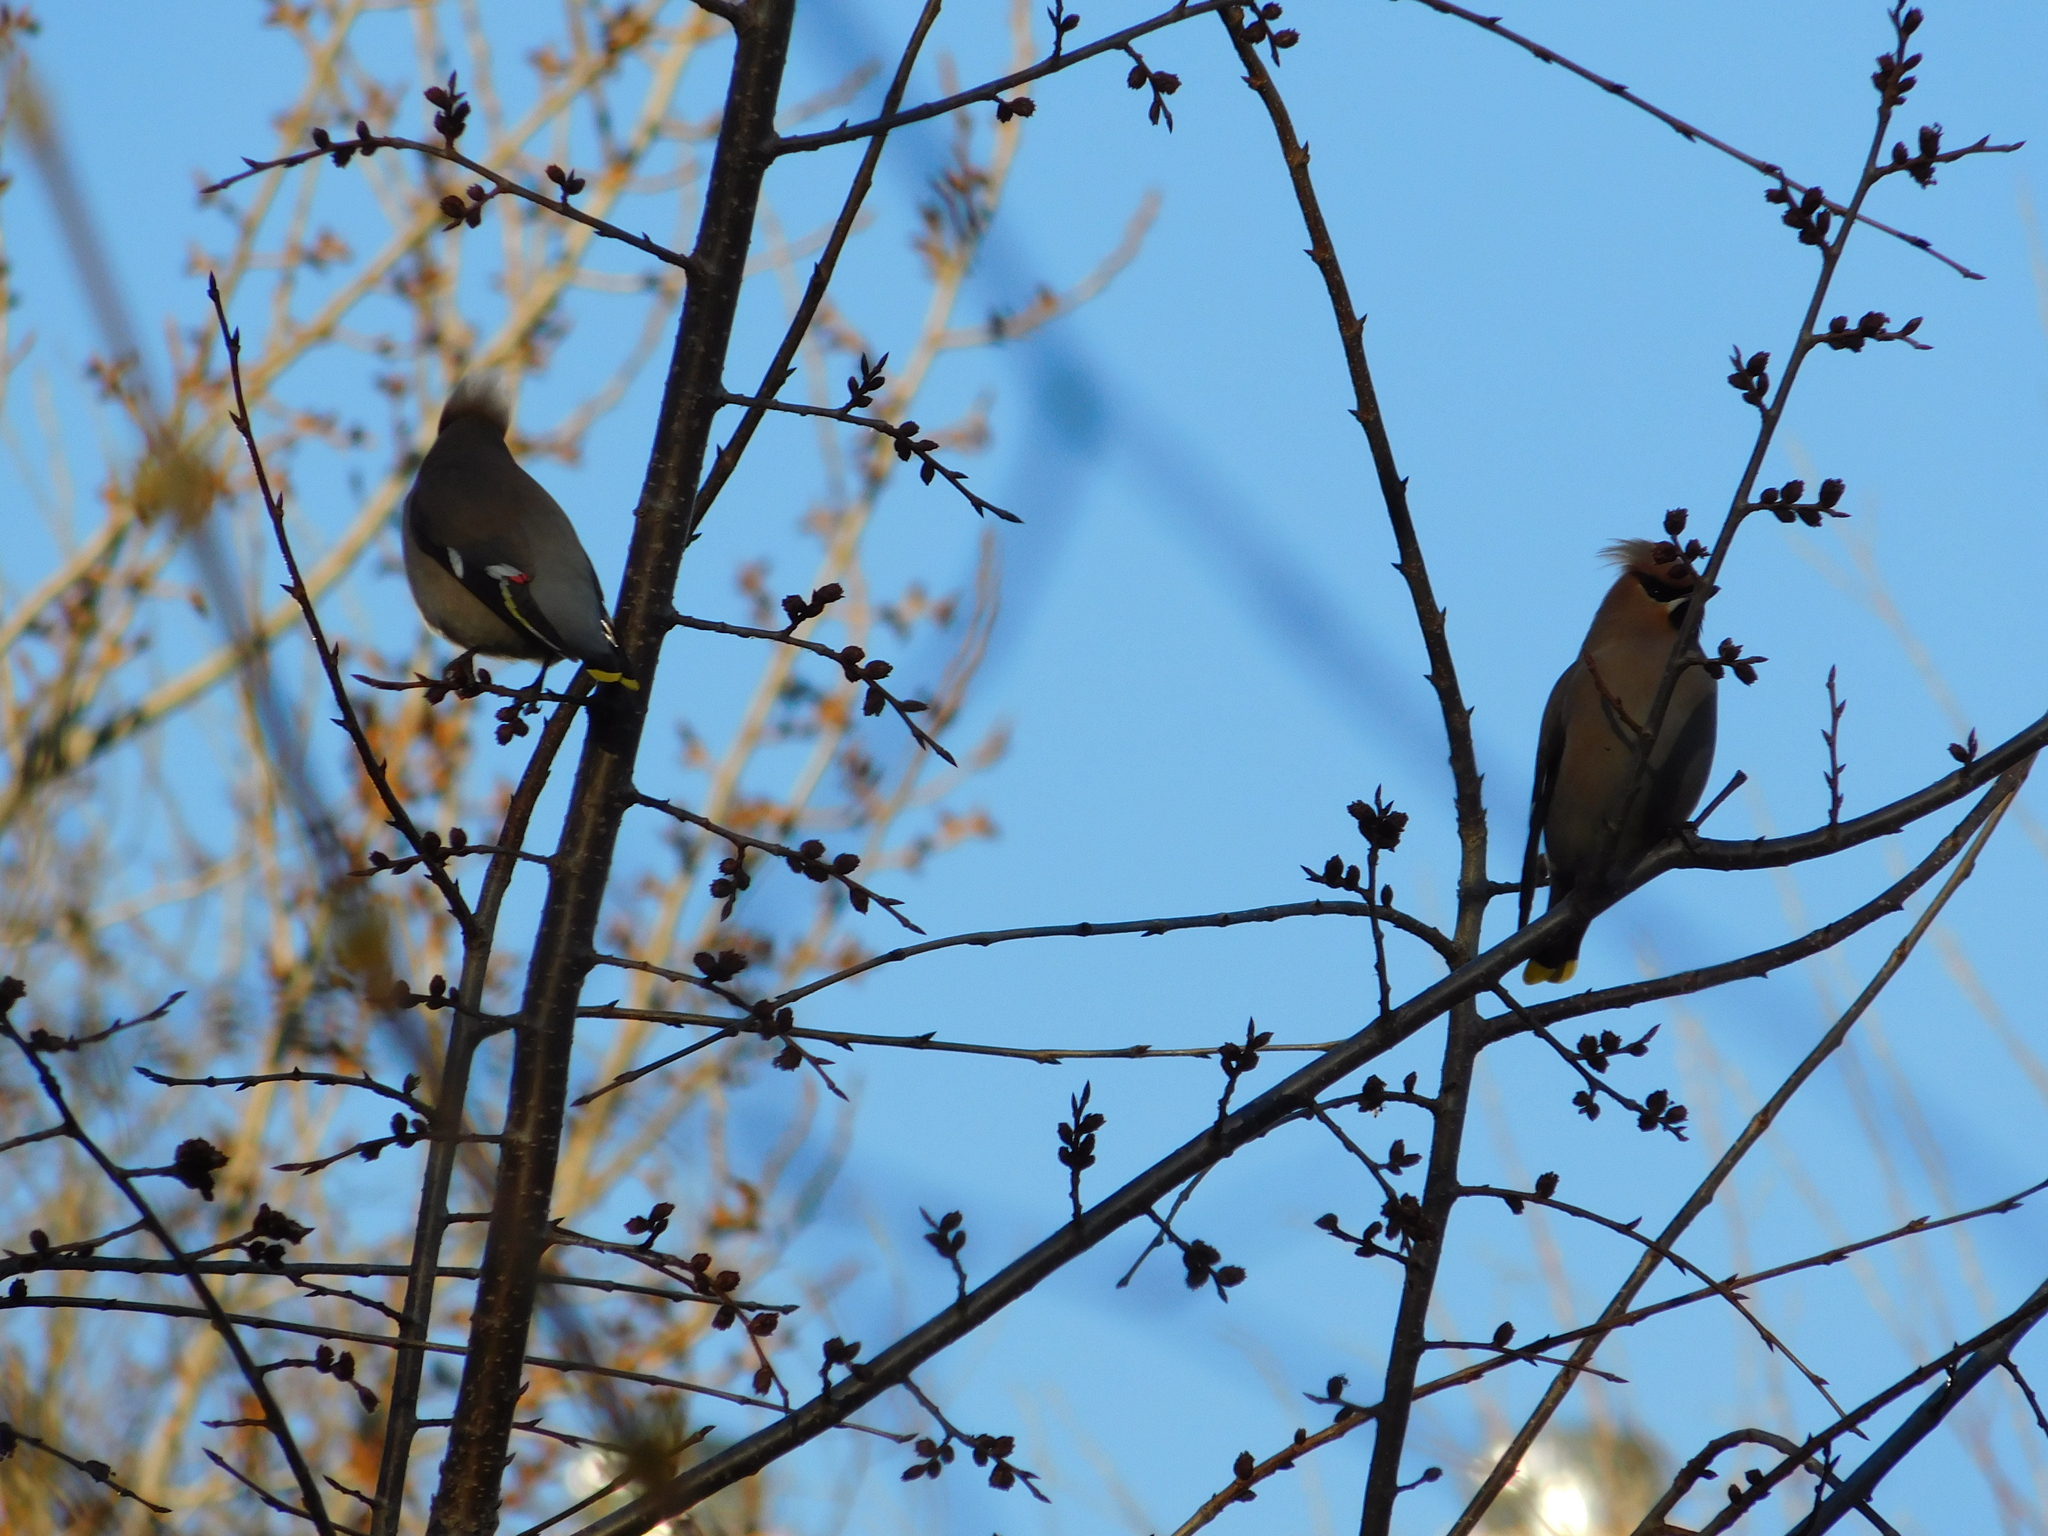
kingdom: Animalia
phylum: Chordata
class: Aves
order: Passeriformes
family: Bombycillidae
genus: Bombycilla
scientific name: Bombycilla garrulus
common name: Bohemian waxwing
